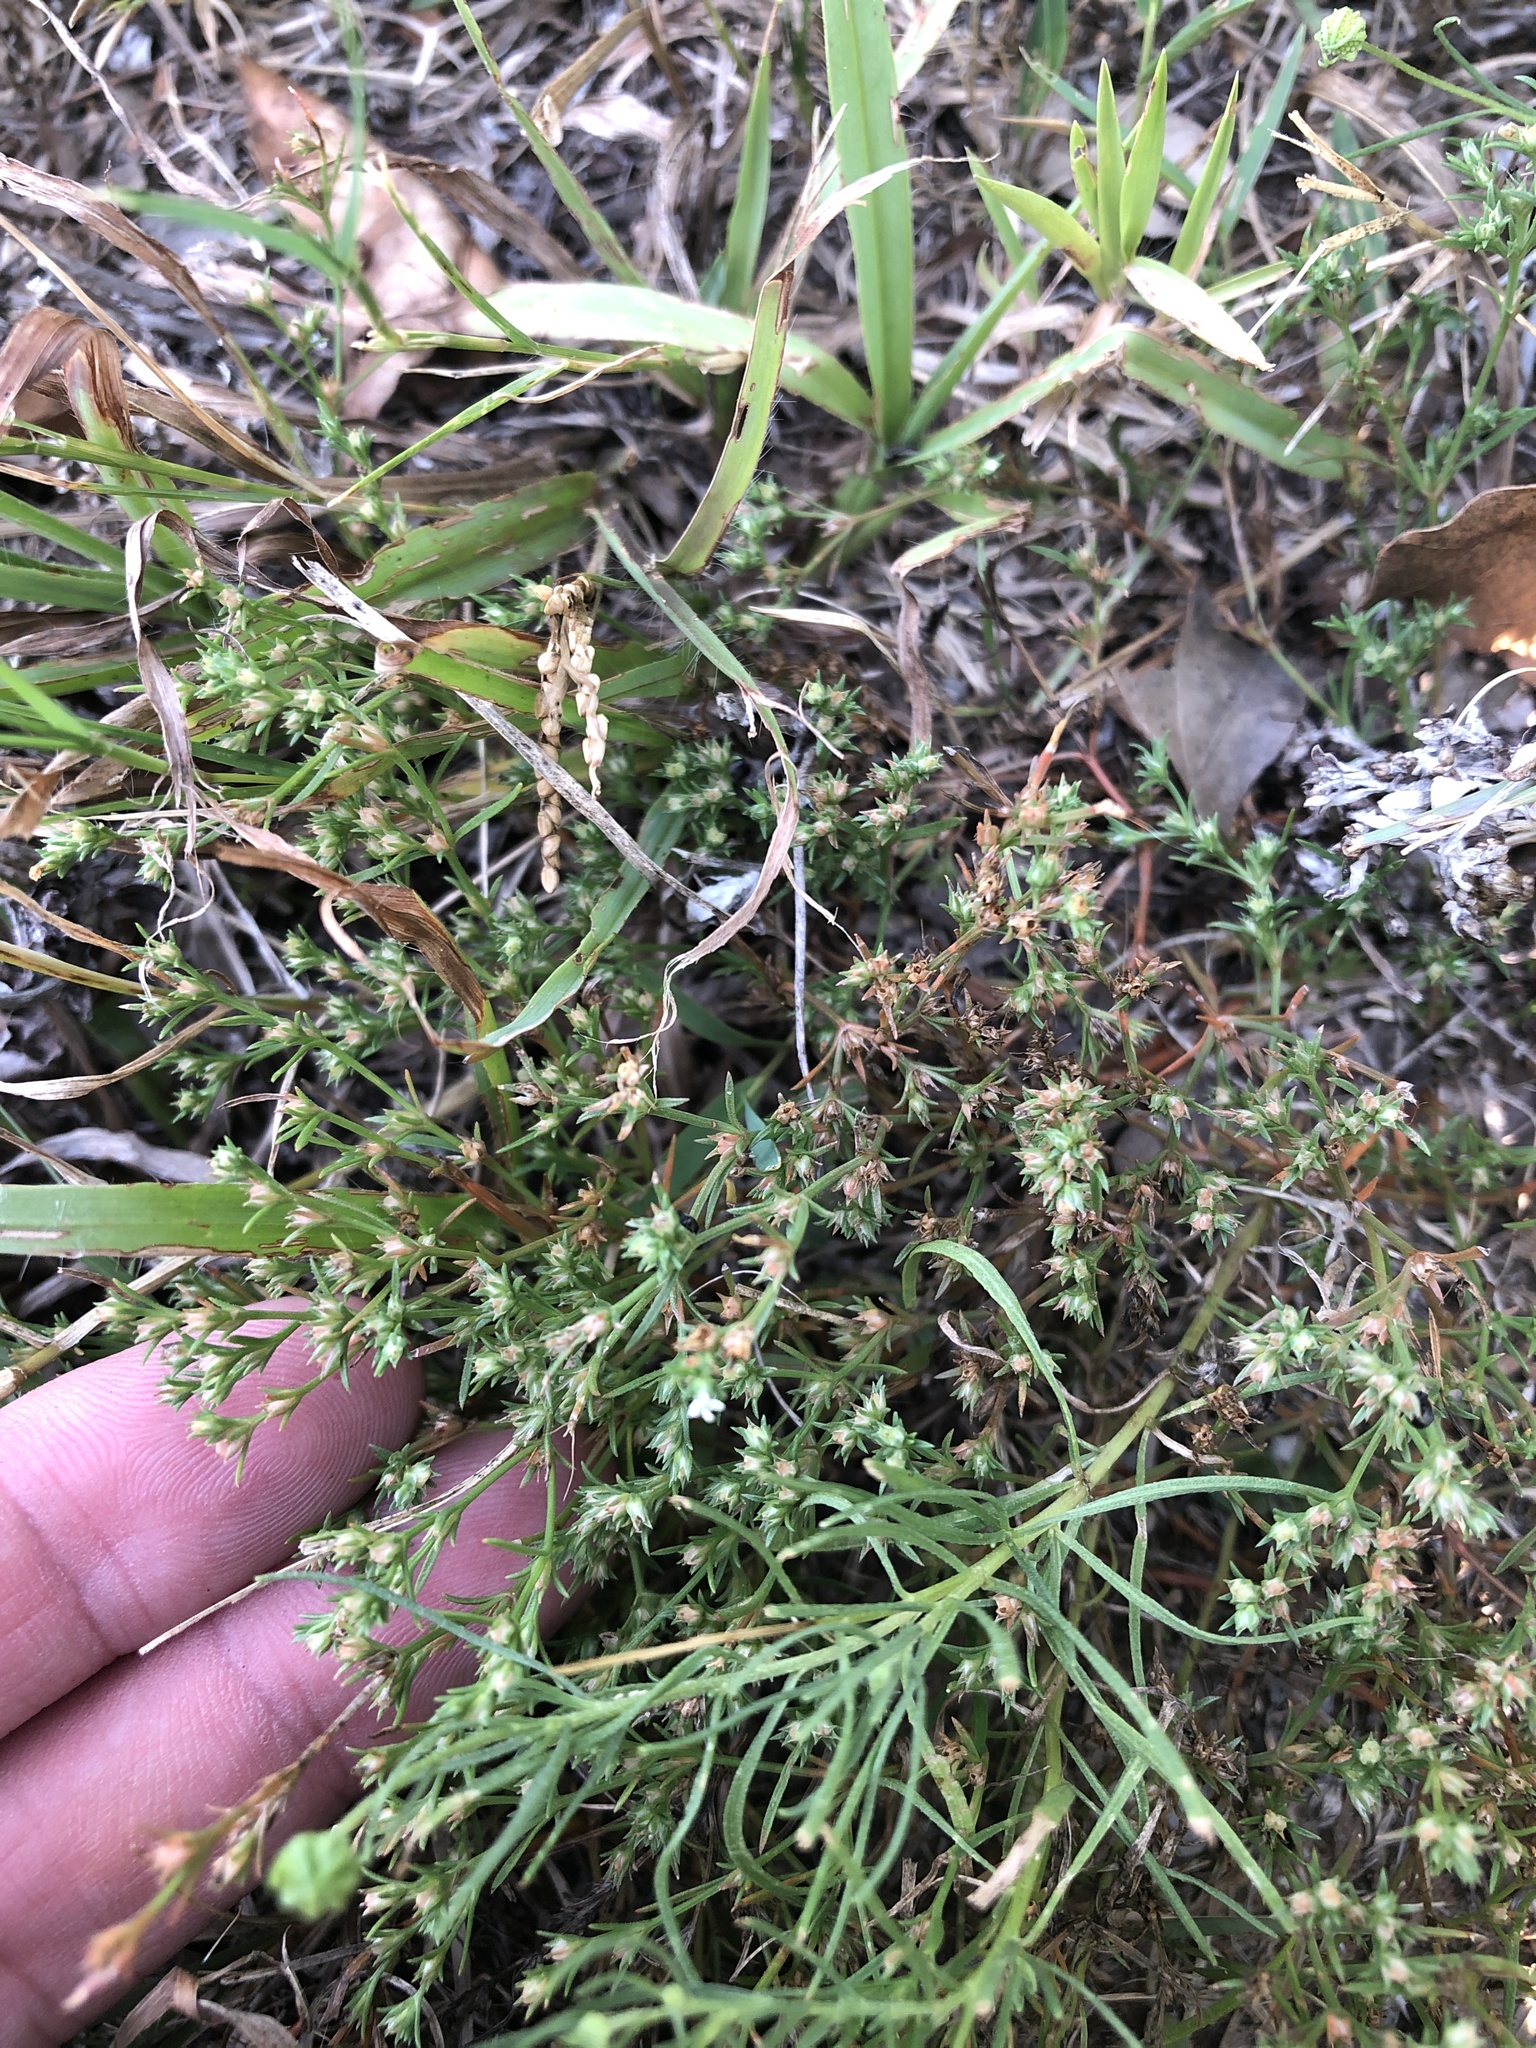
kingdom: Plantae
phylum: Tracheophyta
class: Magnoliopsida
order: Lamiales
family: Tetrachondraceae
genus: Polypremum
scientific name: Polypremum procumbens
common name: Juniper-leaf
